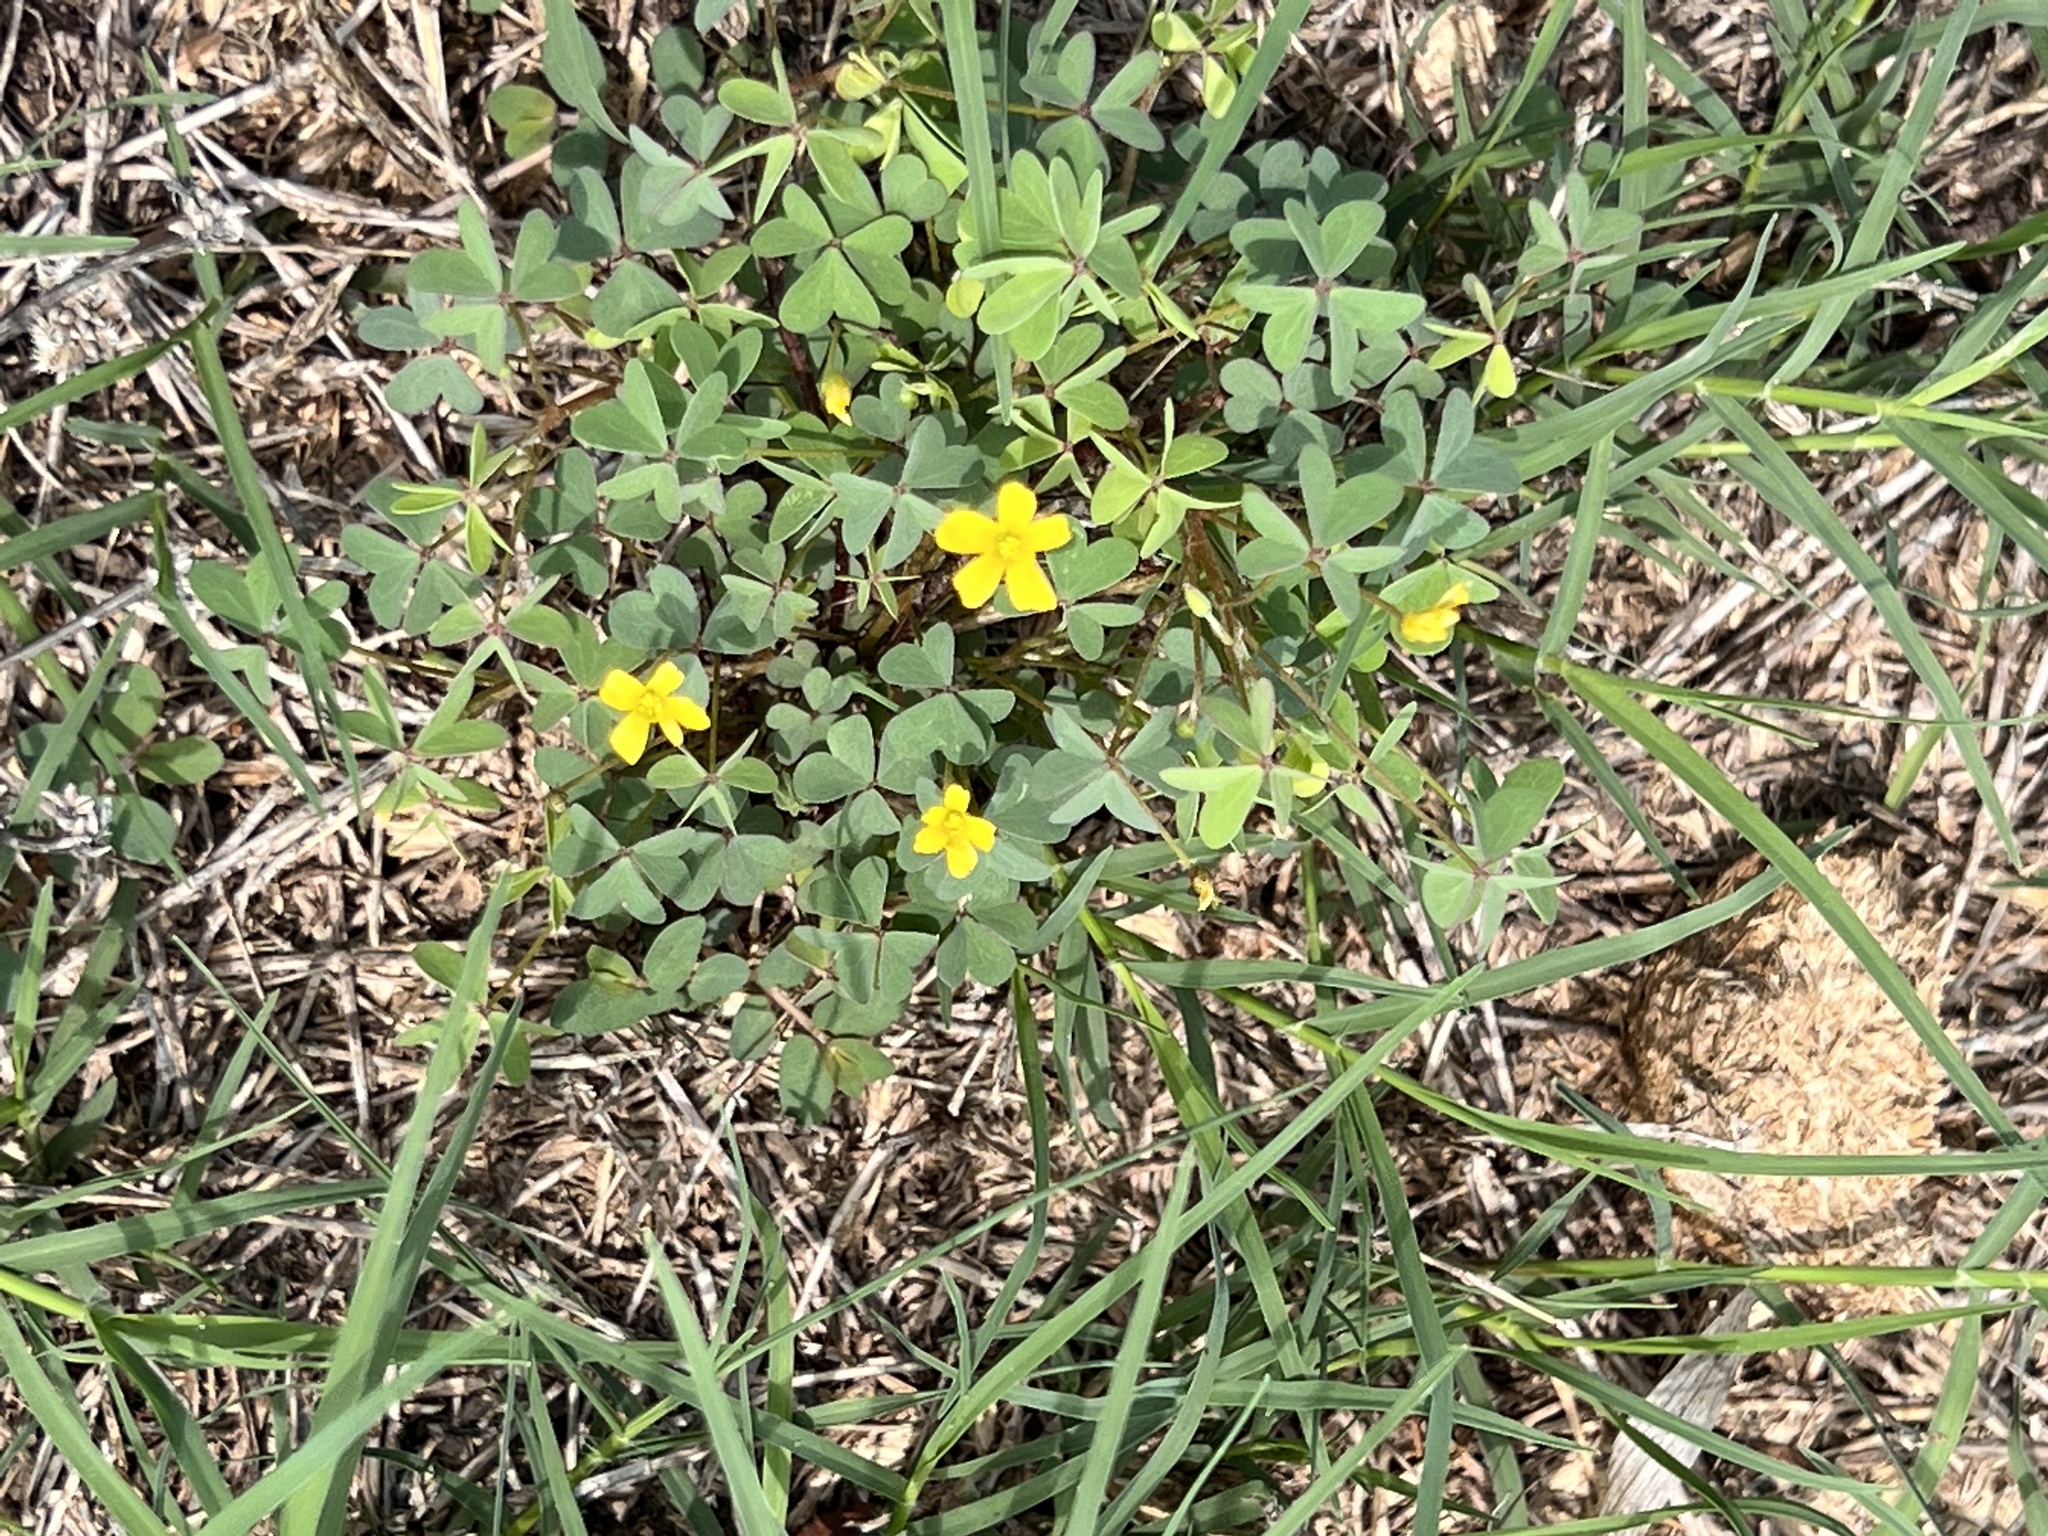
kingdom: Plantae
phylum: Tracheophyta
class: Magnoliopsida
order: Oxalidales
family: Oxalidaceae
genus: Oxalis
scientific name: Oxalis dillenii
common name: Sussex yellow-sorrel
